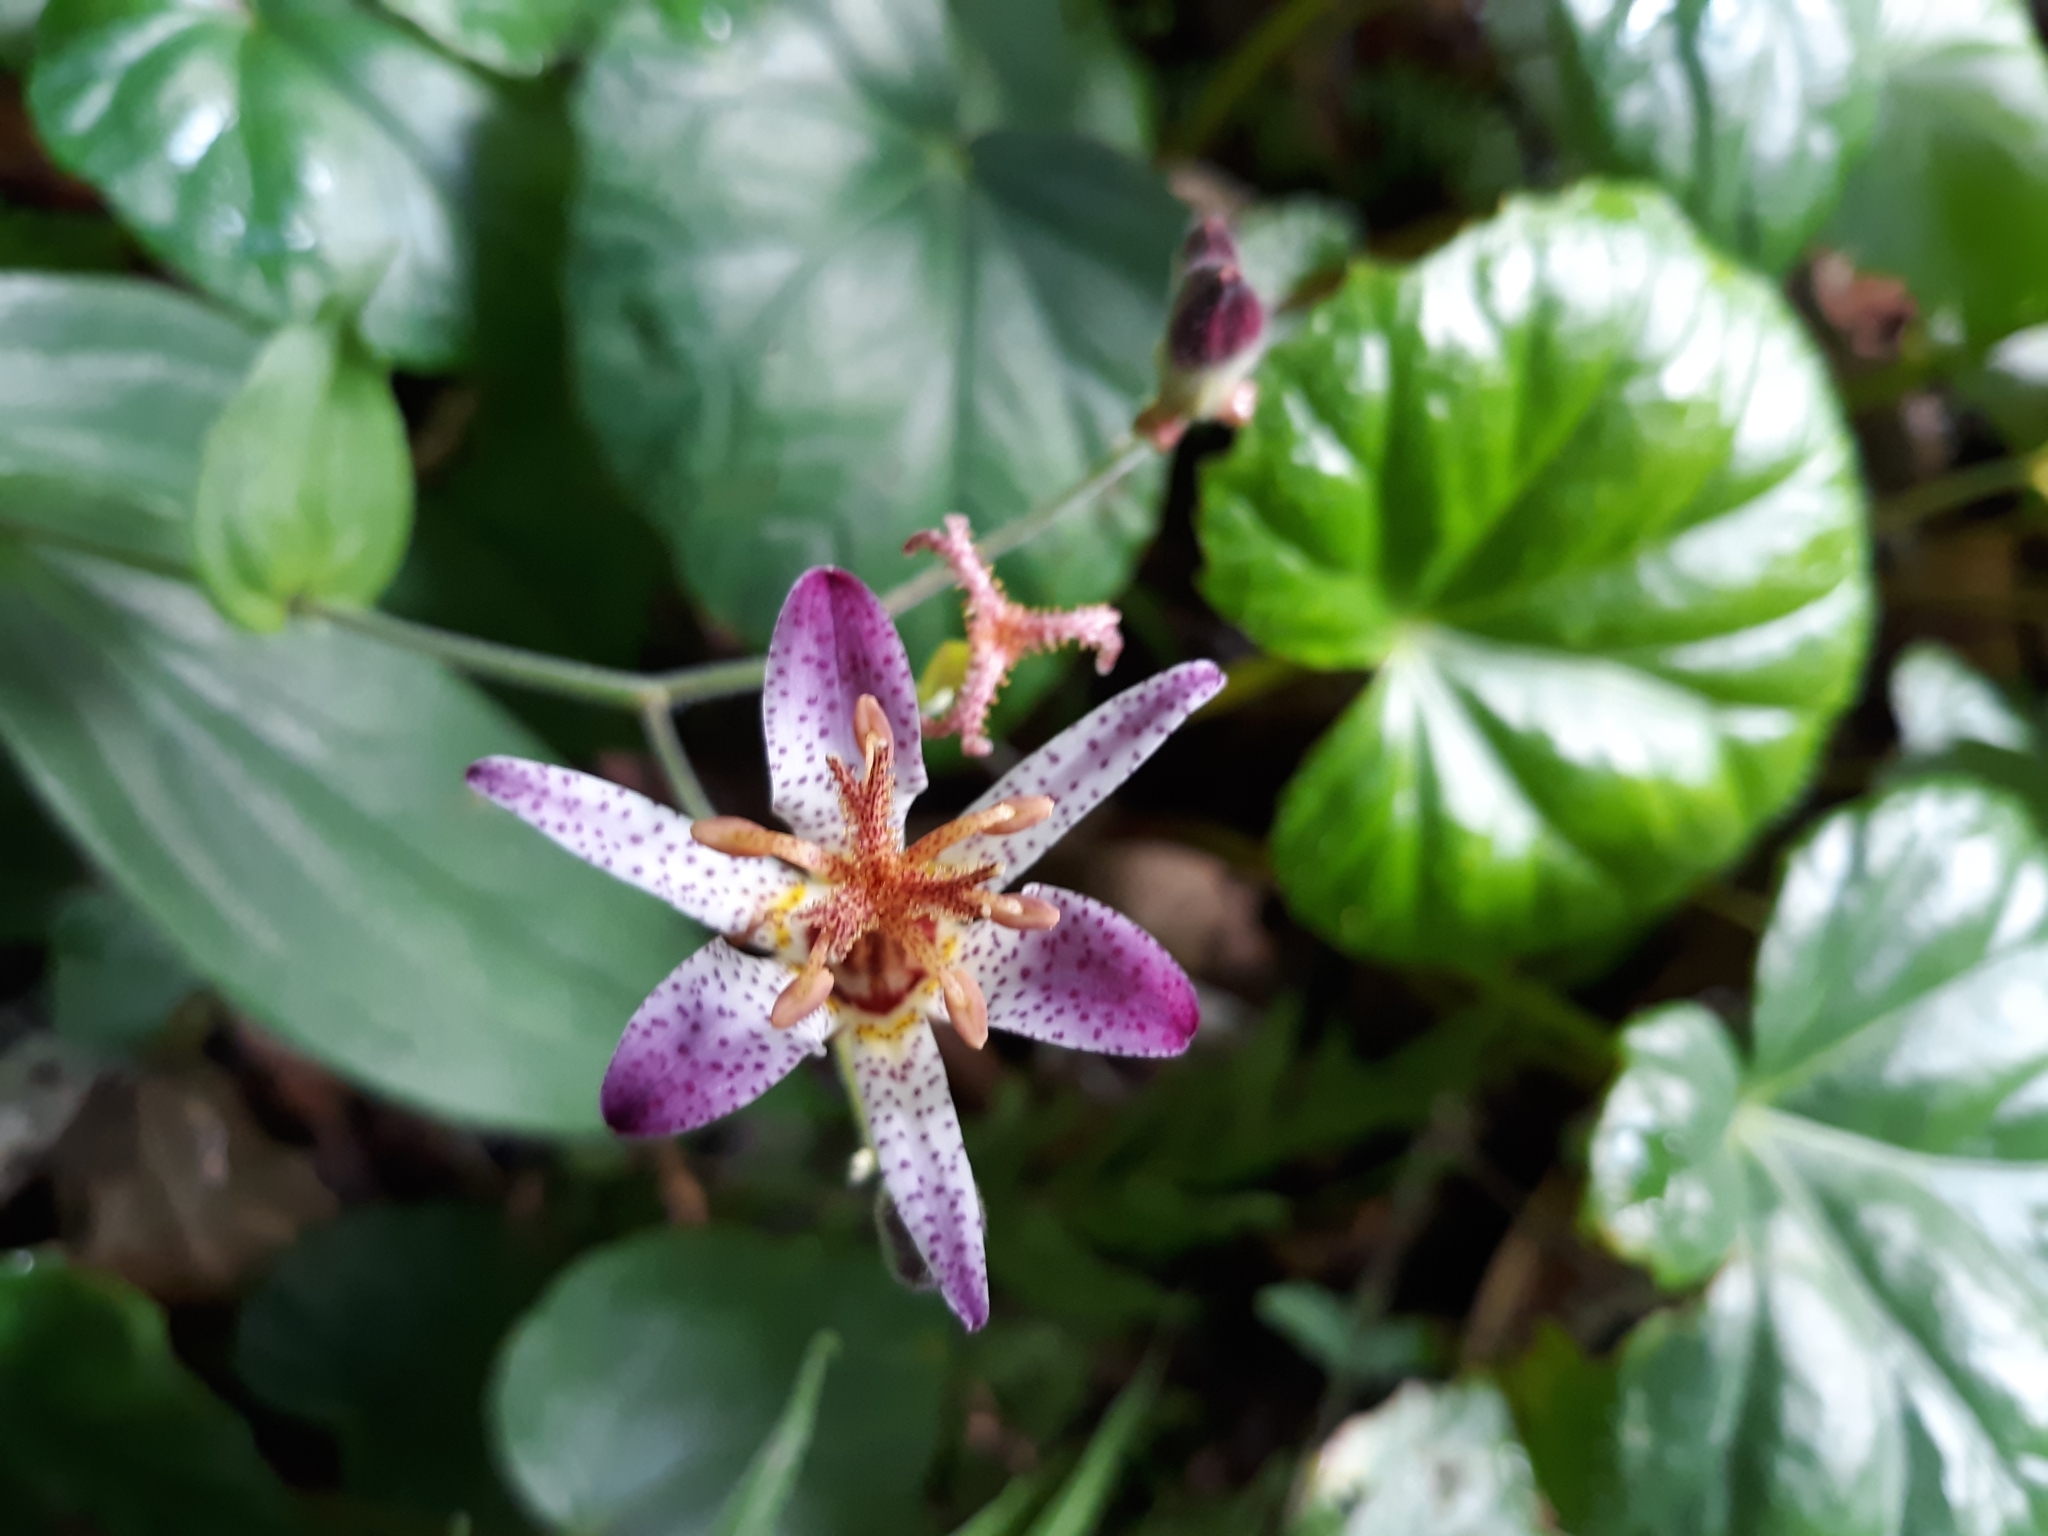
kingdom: Plantae
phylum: Tracheophyta
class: Liliopsida
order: Liliales
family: Liliaceae
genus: Tricyrtis
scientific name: Tricyrtis formosana
